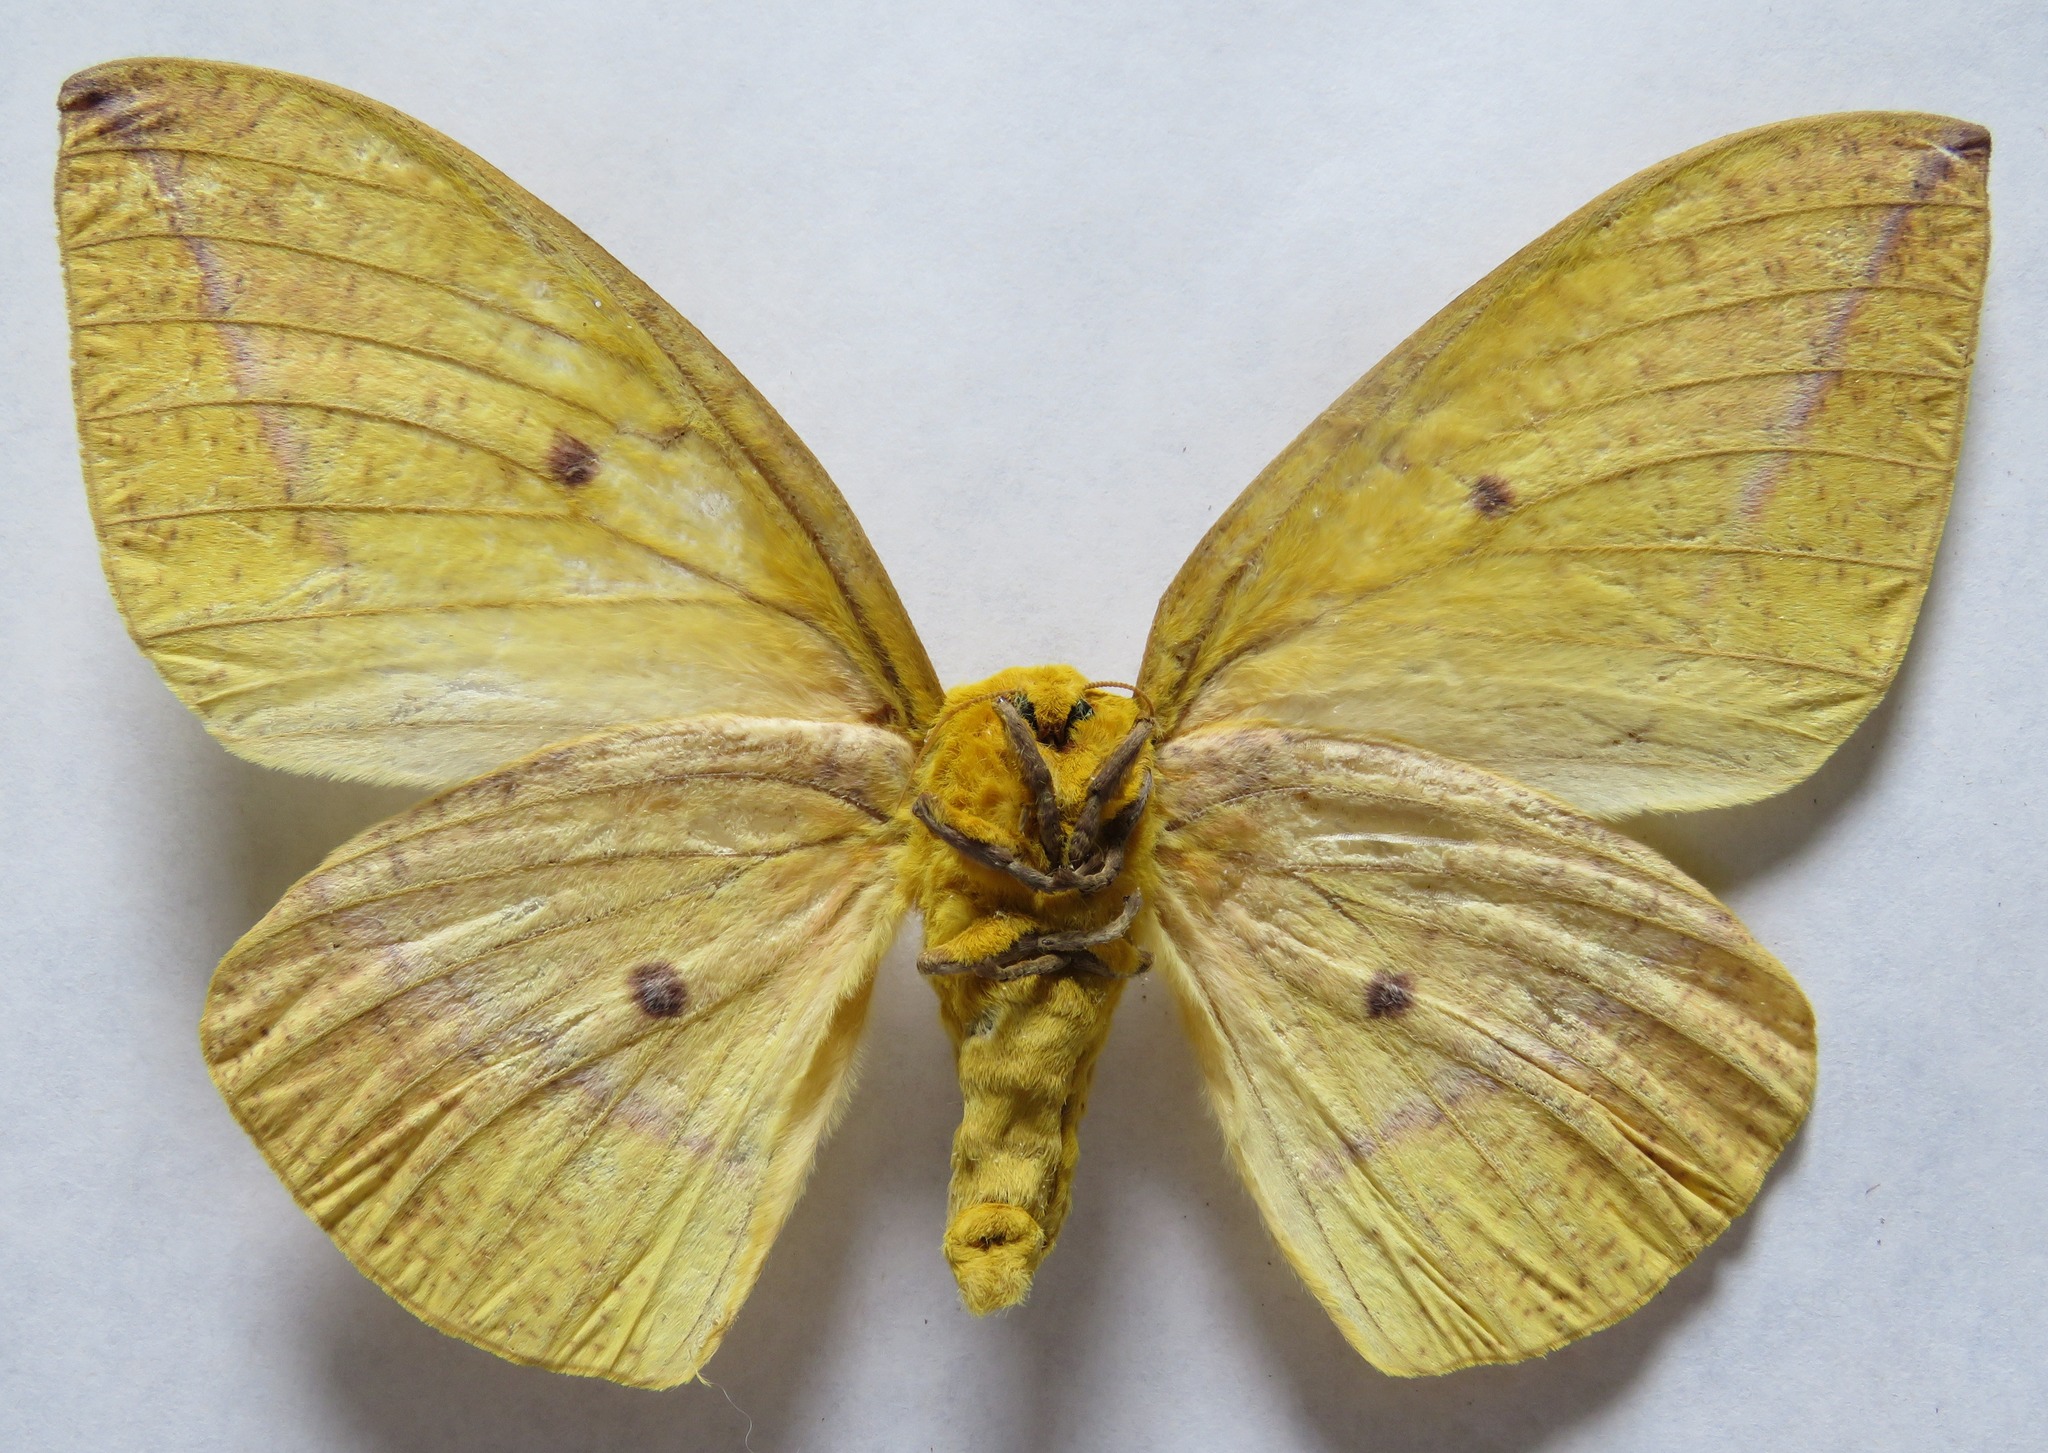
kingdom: Animalia
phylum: Arthropoda
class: Insecta
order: Lepidoptera
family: Saturniidae
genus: Eacles
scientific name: Eacles imperialis
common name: Imperial moth
